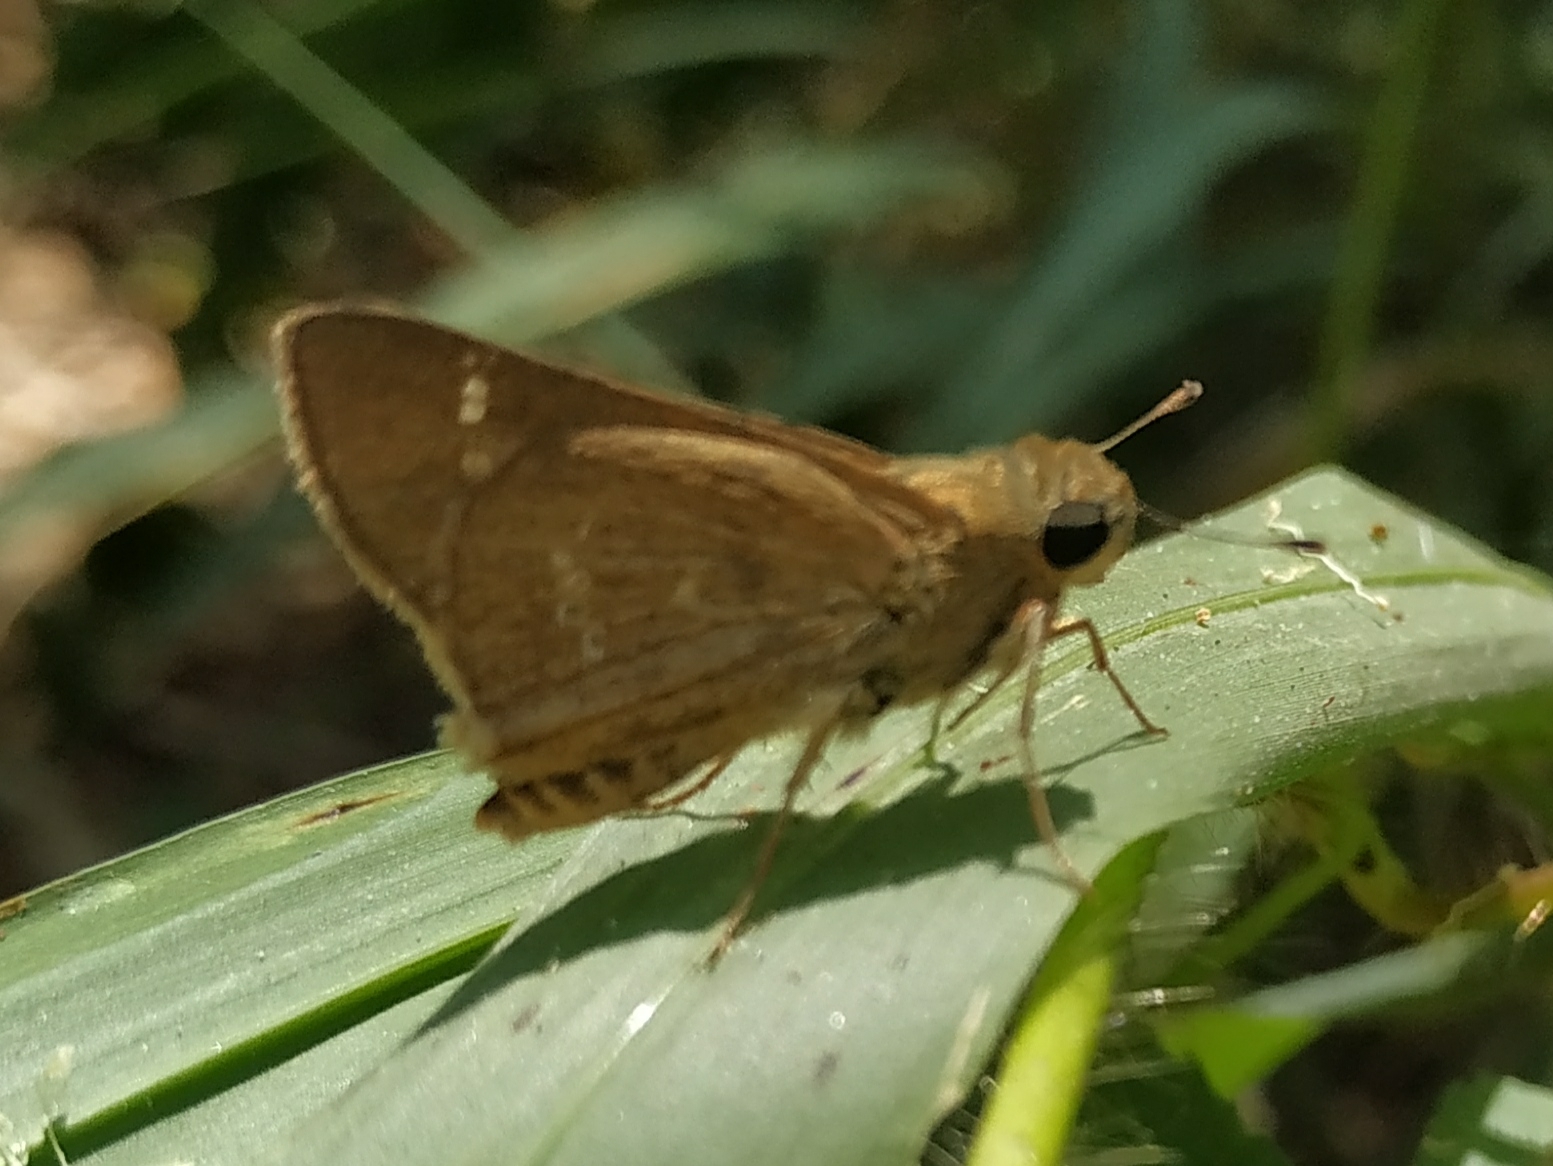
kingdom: Animalia
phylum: Arthropoda
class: Insecta
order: Lepidoptera
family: Hesperiidae
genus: Parnara
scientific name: Parnara naso
